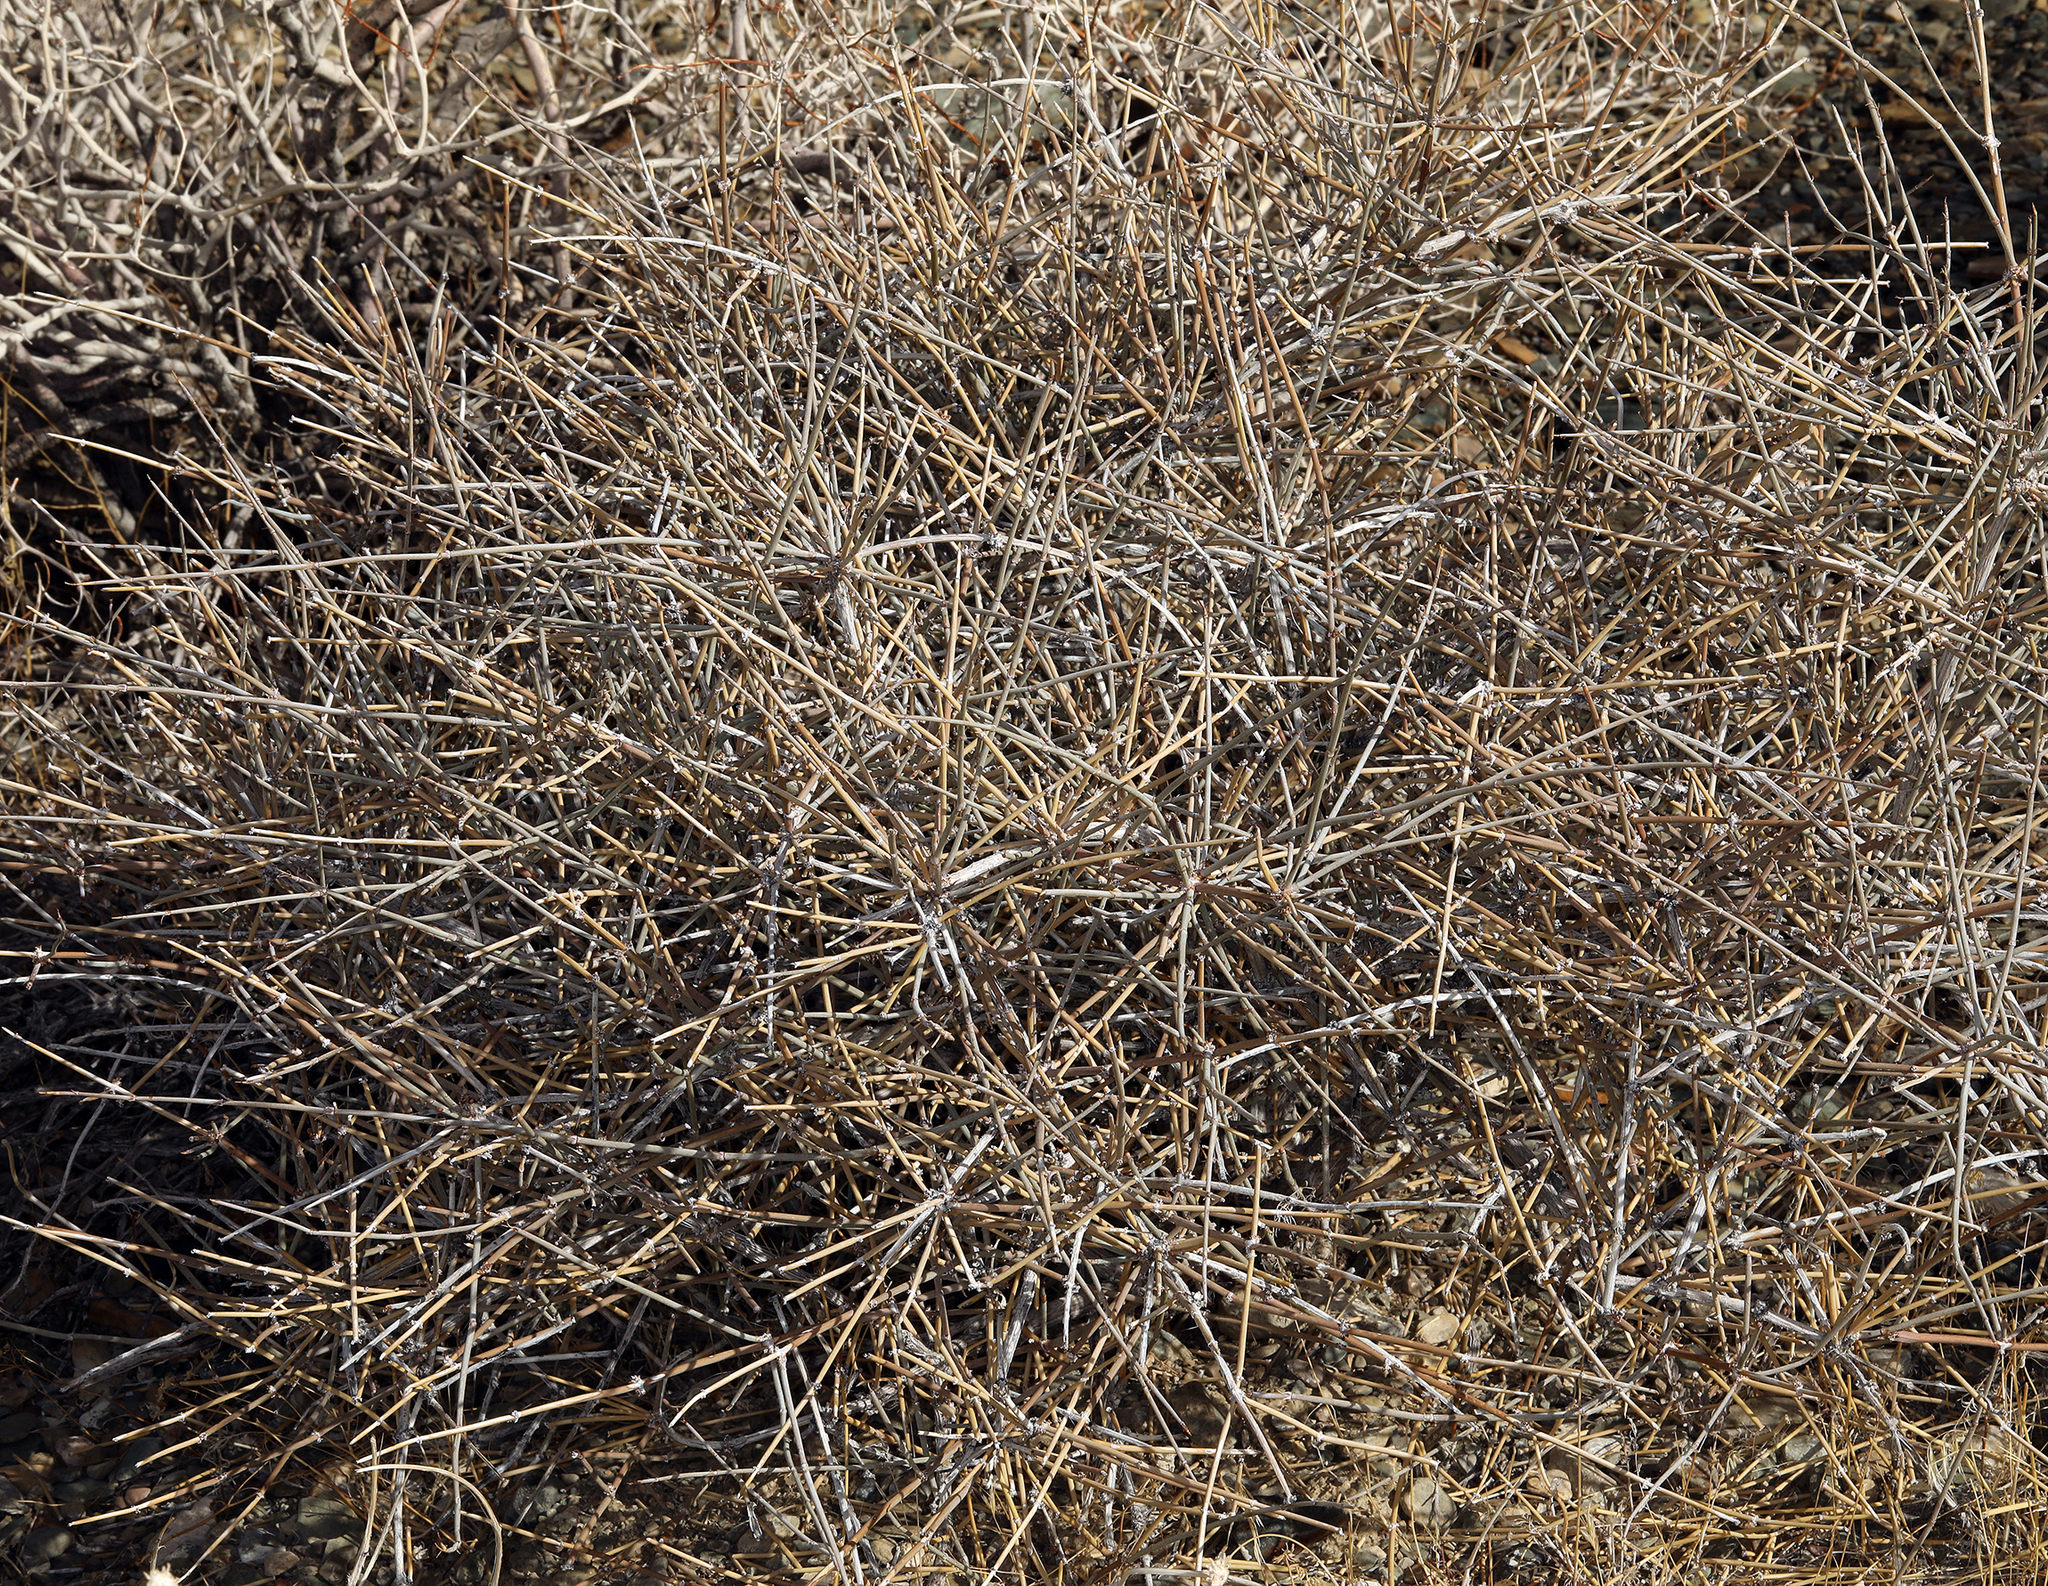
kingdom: Plantae
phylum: Tracheophyta
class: Gnetopsida
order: Ephedrales
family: Ephedraceae
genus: Ephedra
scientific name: Ephedra nevadensis
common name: Gray ephedra
